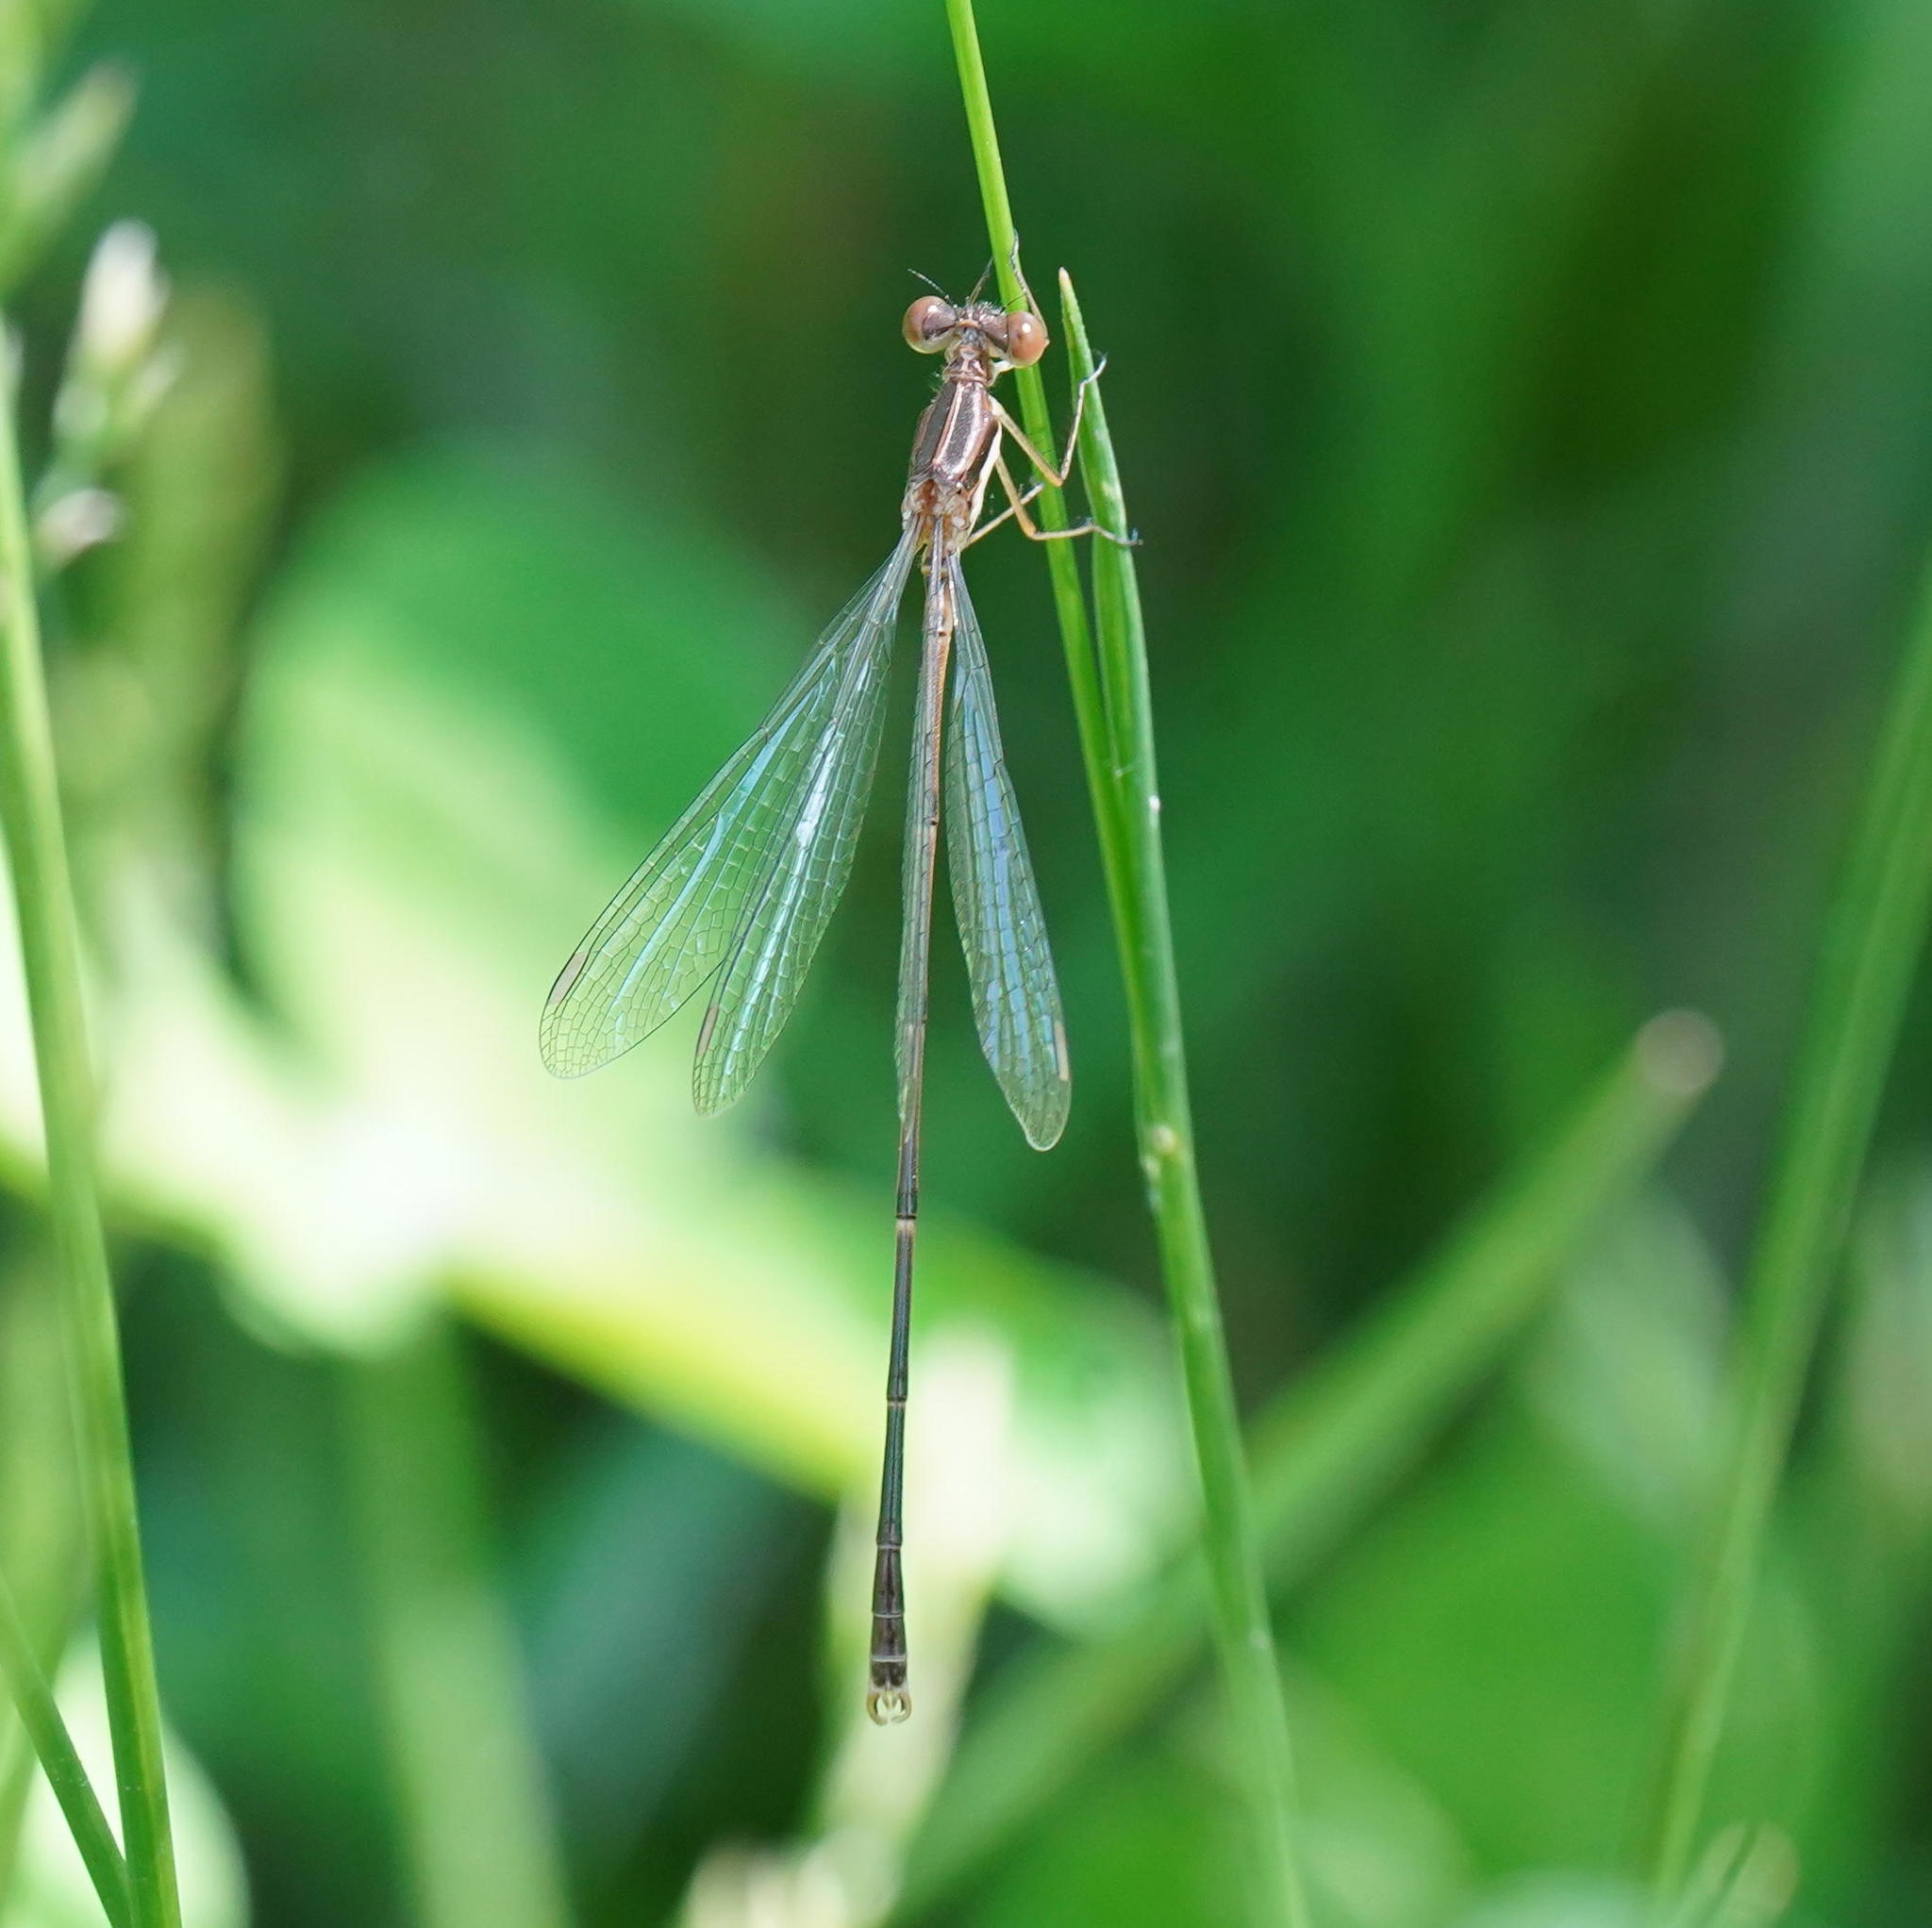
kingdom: Animalia
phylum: Arthropoda
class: Insecta
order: Odonata
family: Lestidae
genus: Lestes
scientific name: Lestes rectangularis
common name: Slender spreadwing
